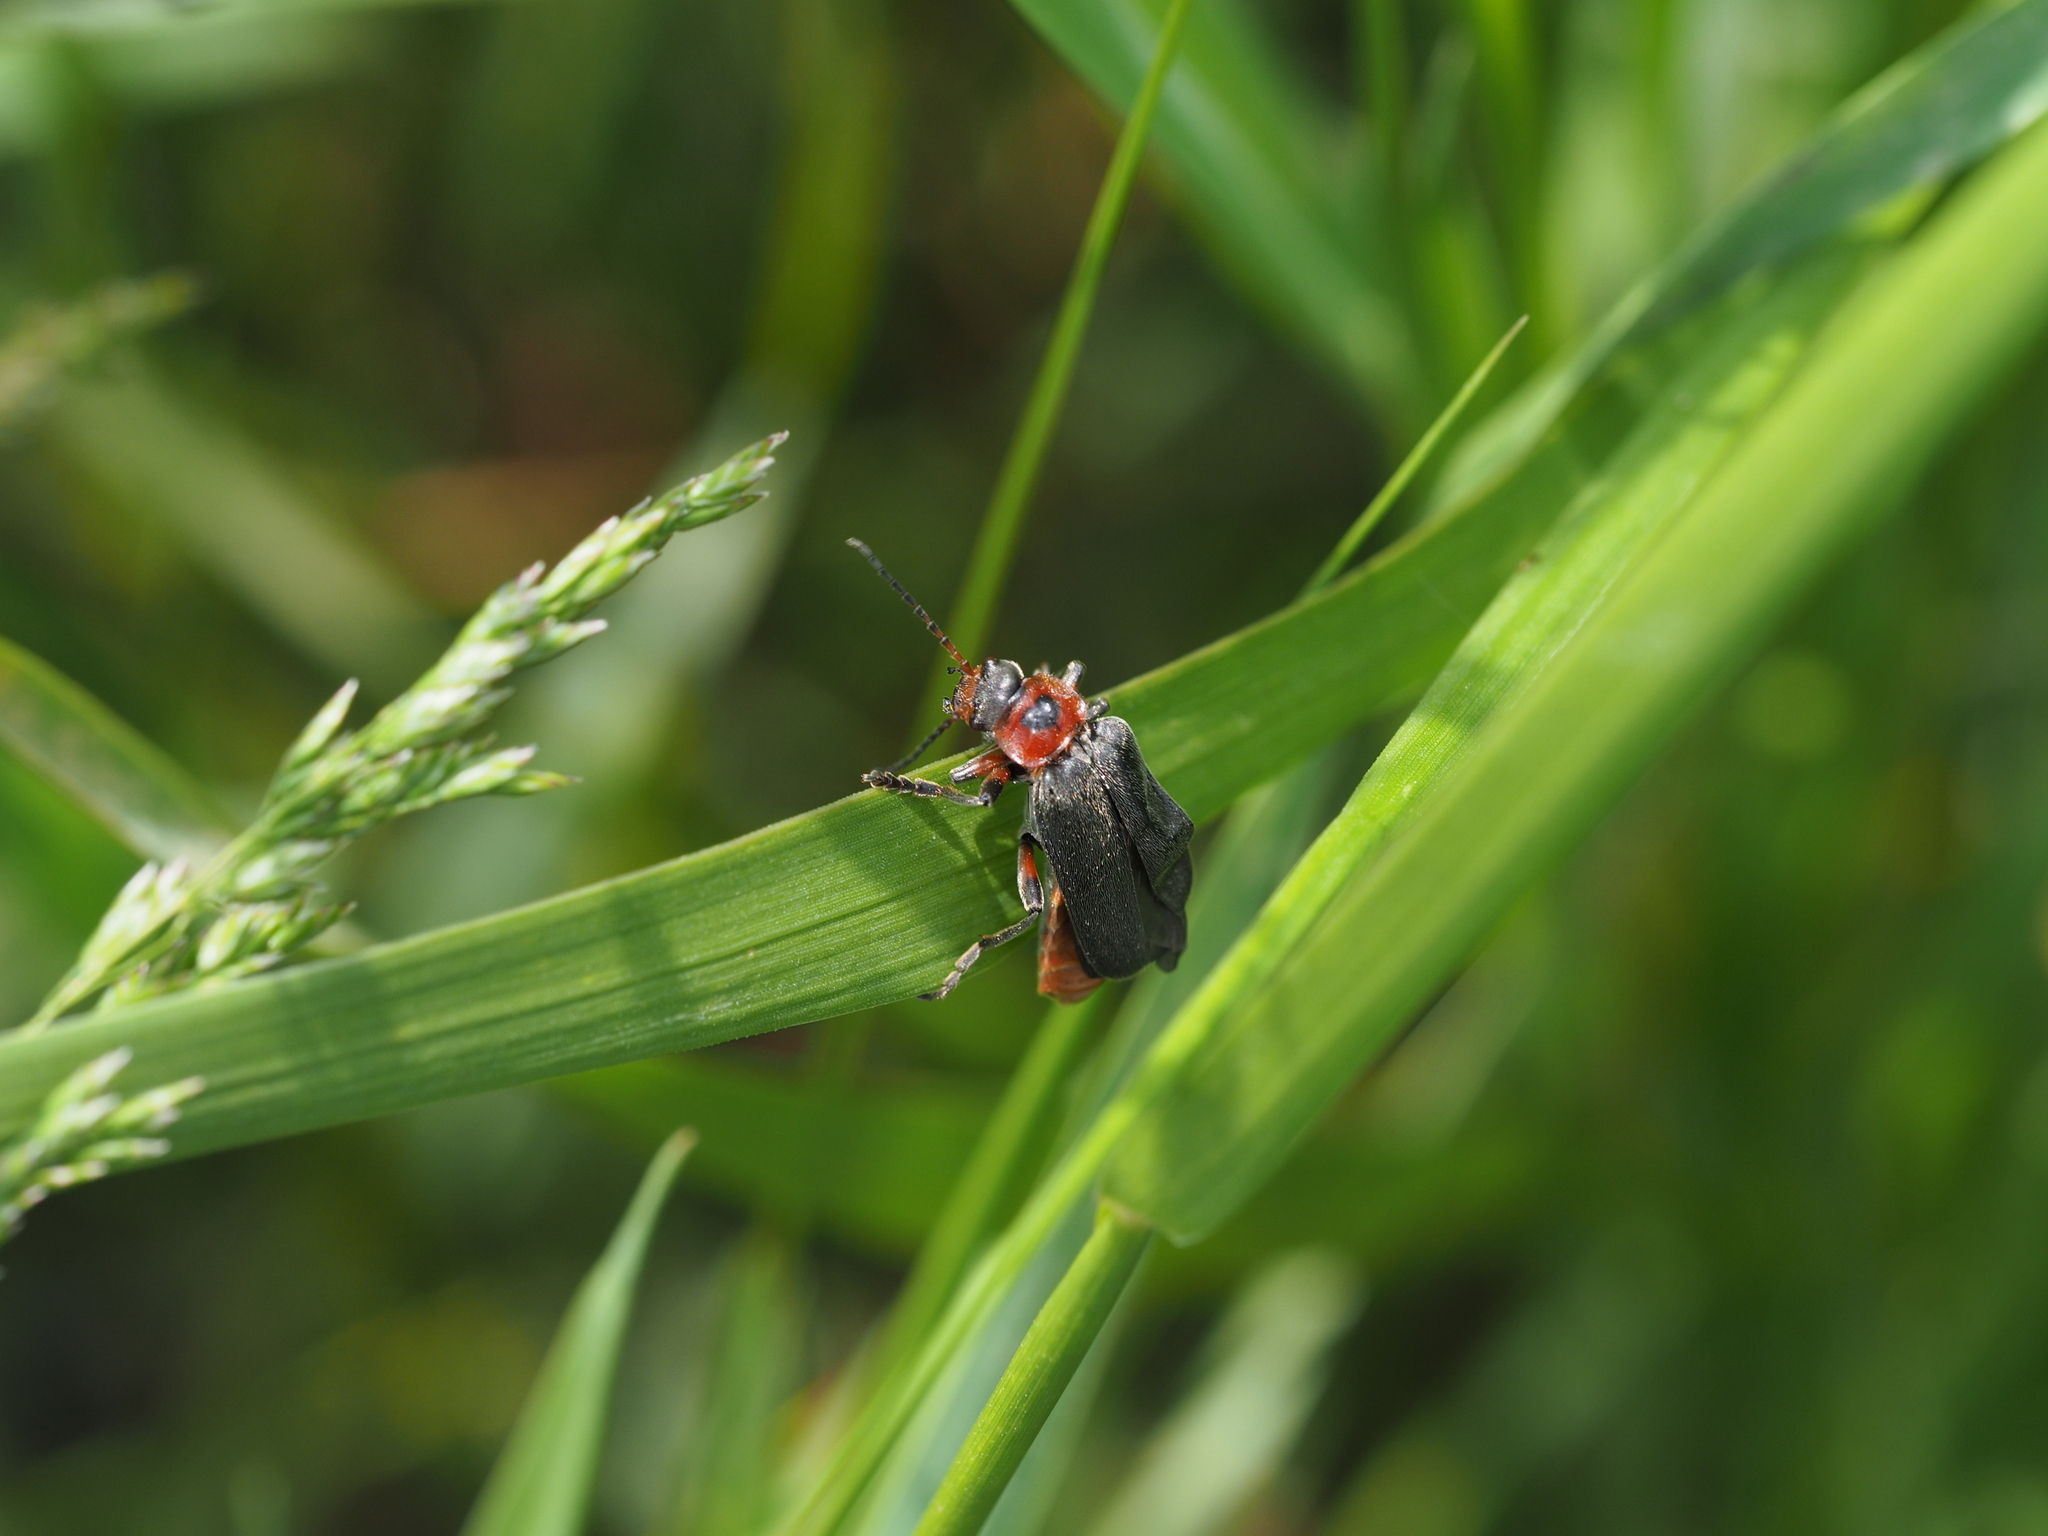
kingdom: Animalia
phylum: Arthropoda
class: Insecta
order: Coleoptera
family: Cantharidae
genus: Cantharis
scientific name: Cantharis rustica
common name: Soldier beetle
